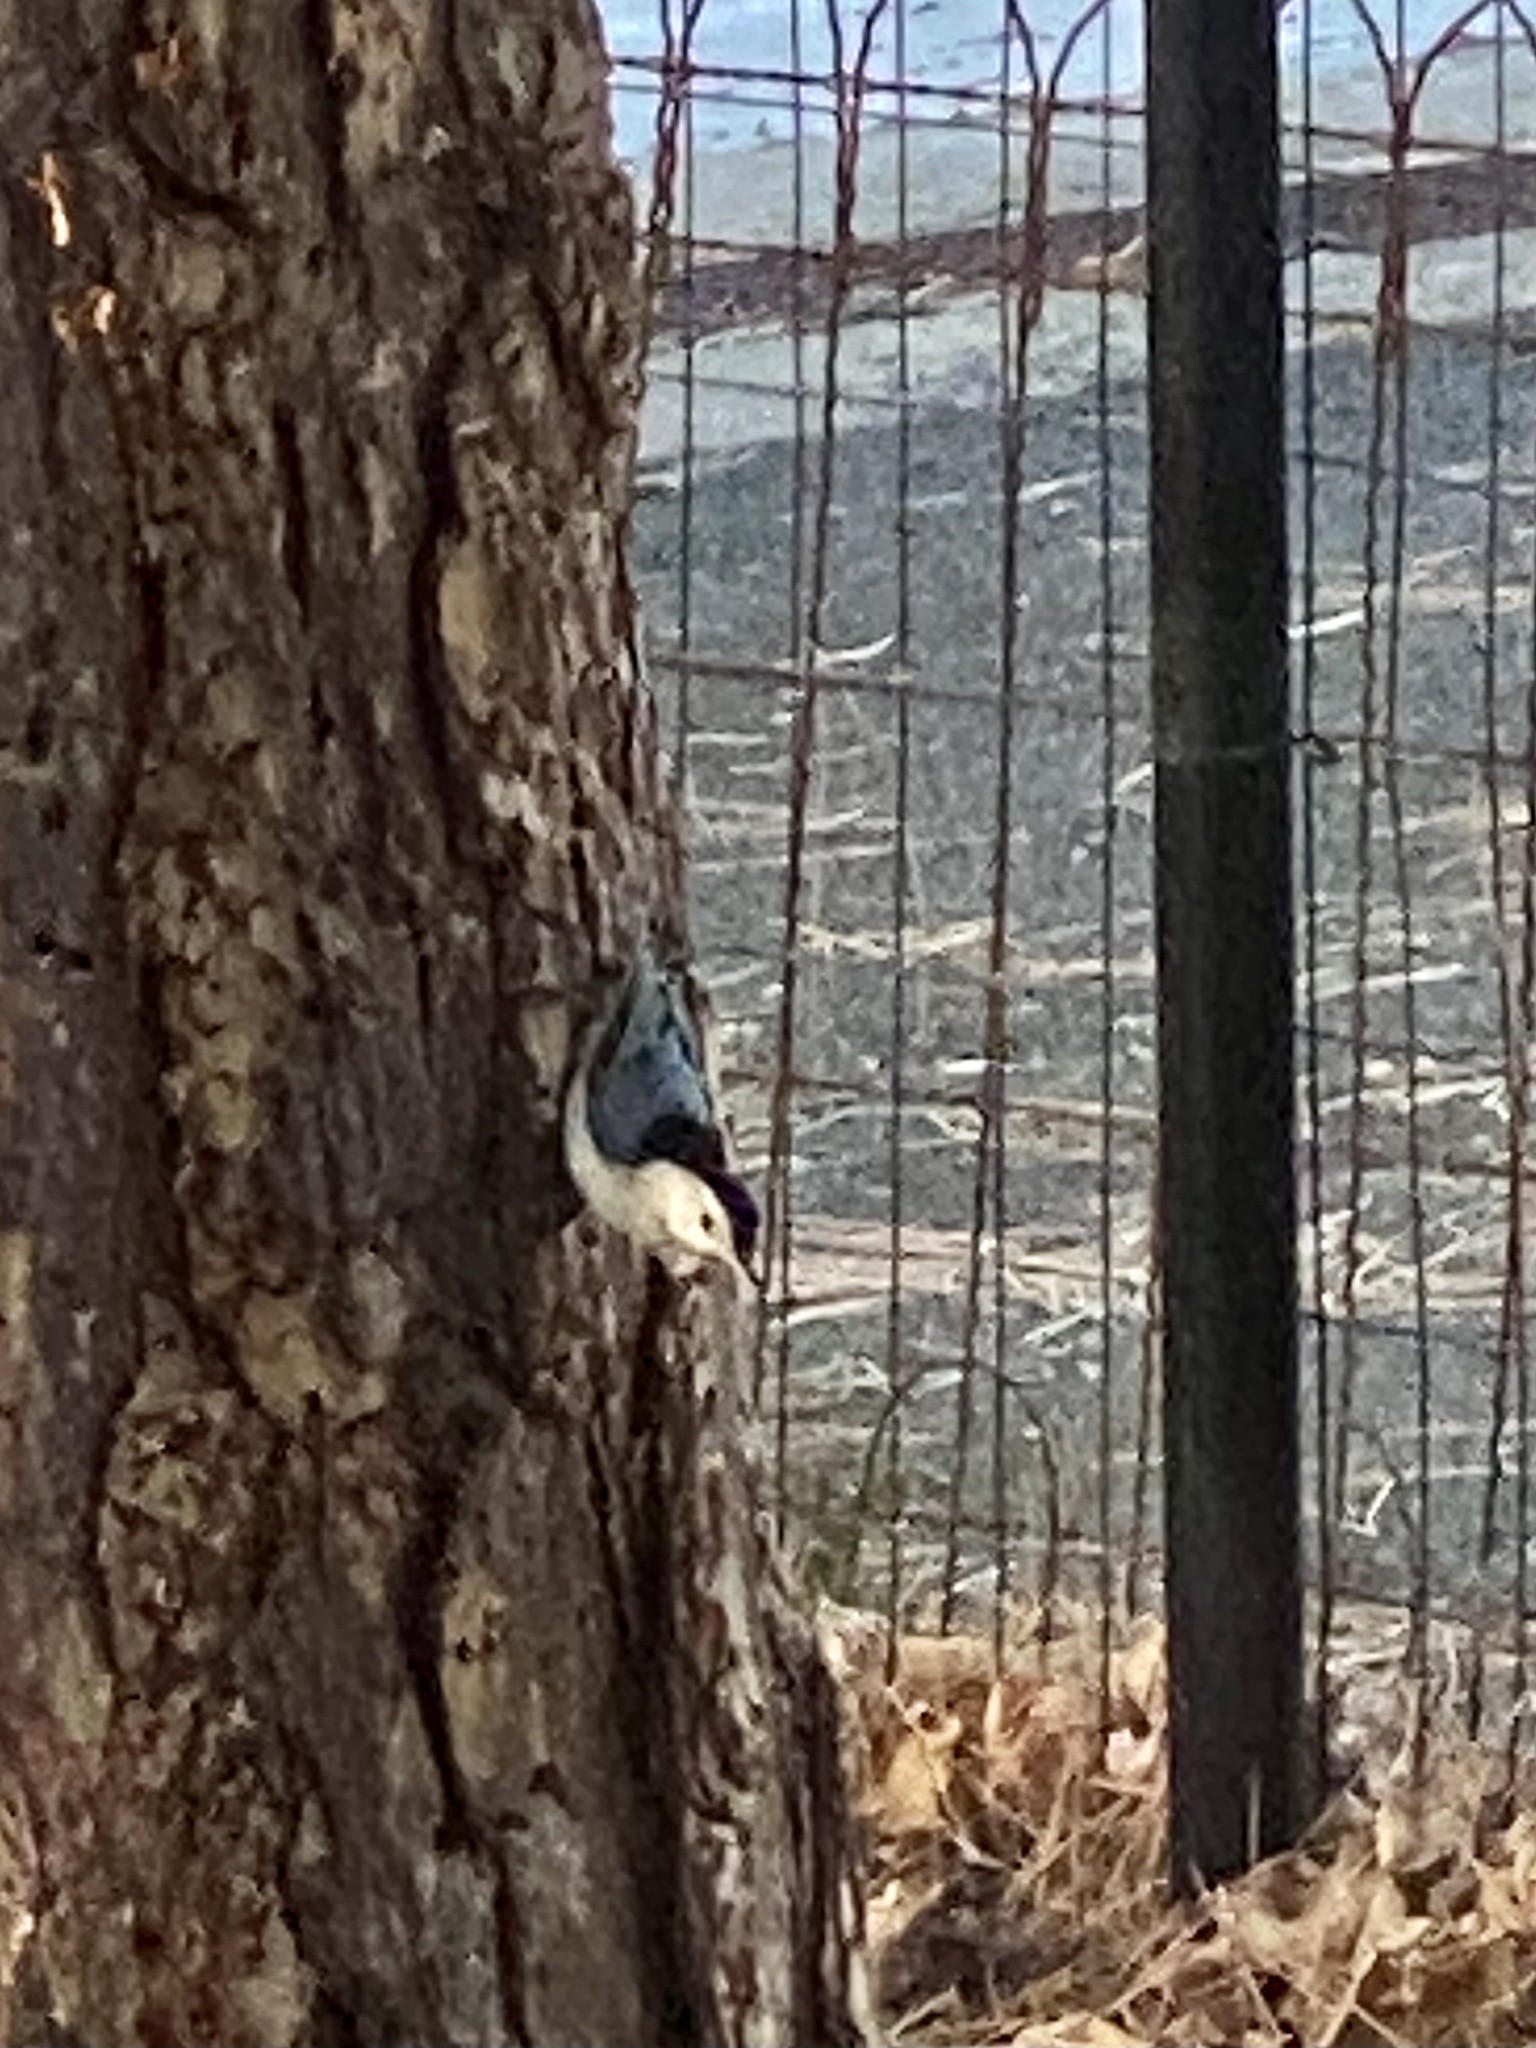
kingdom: Animalia
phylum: Chordata
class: Aves
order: Passeriformes
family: Sittidae
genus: Sitta
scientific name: Sitta carolinensis
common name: White-breasted nuthatch
